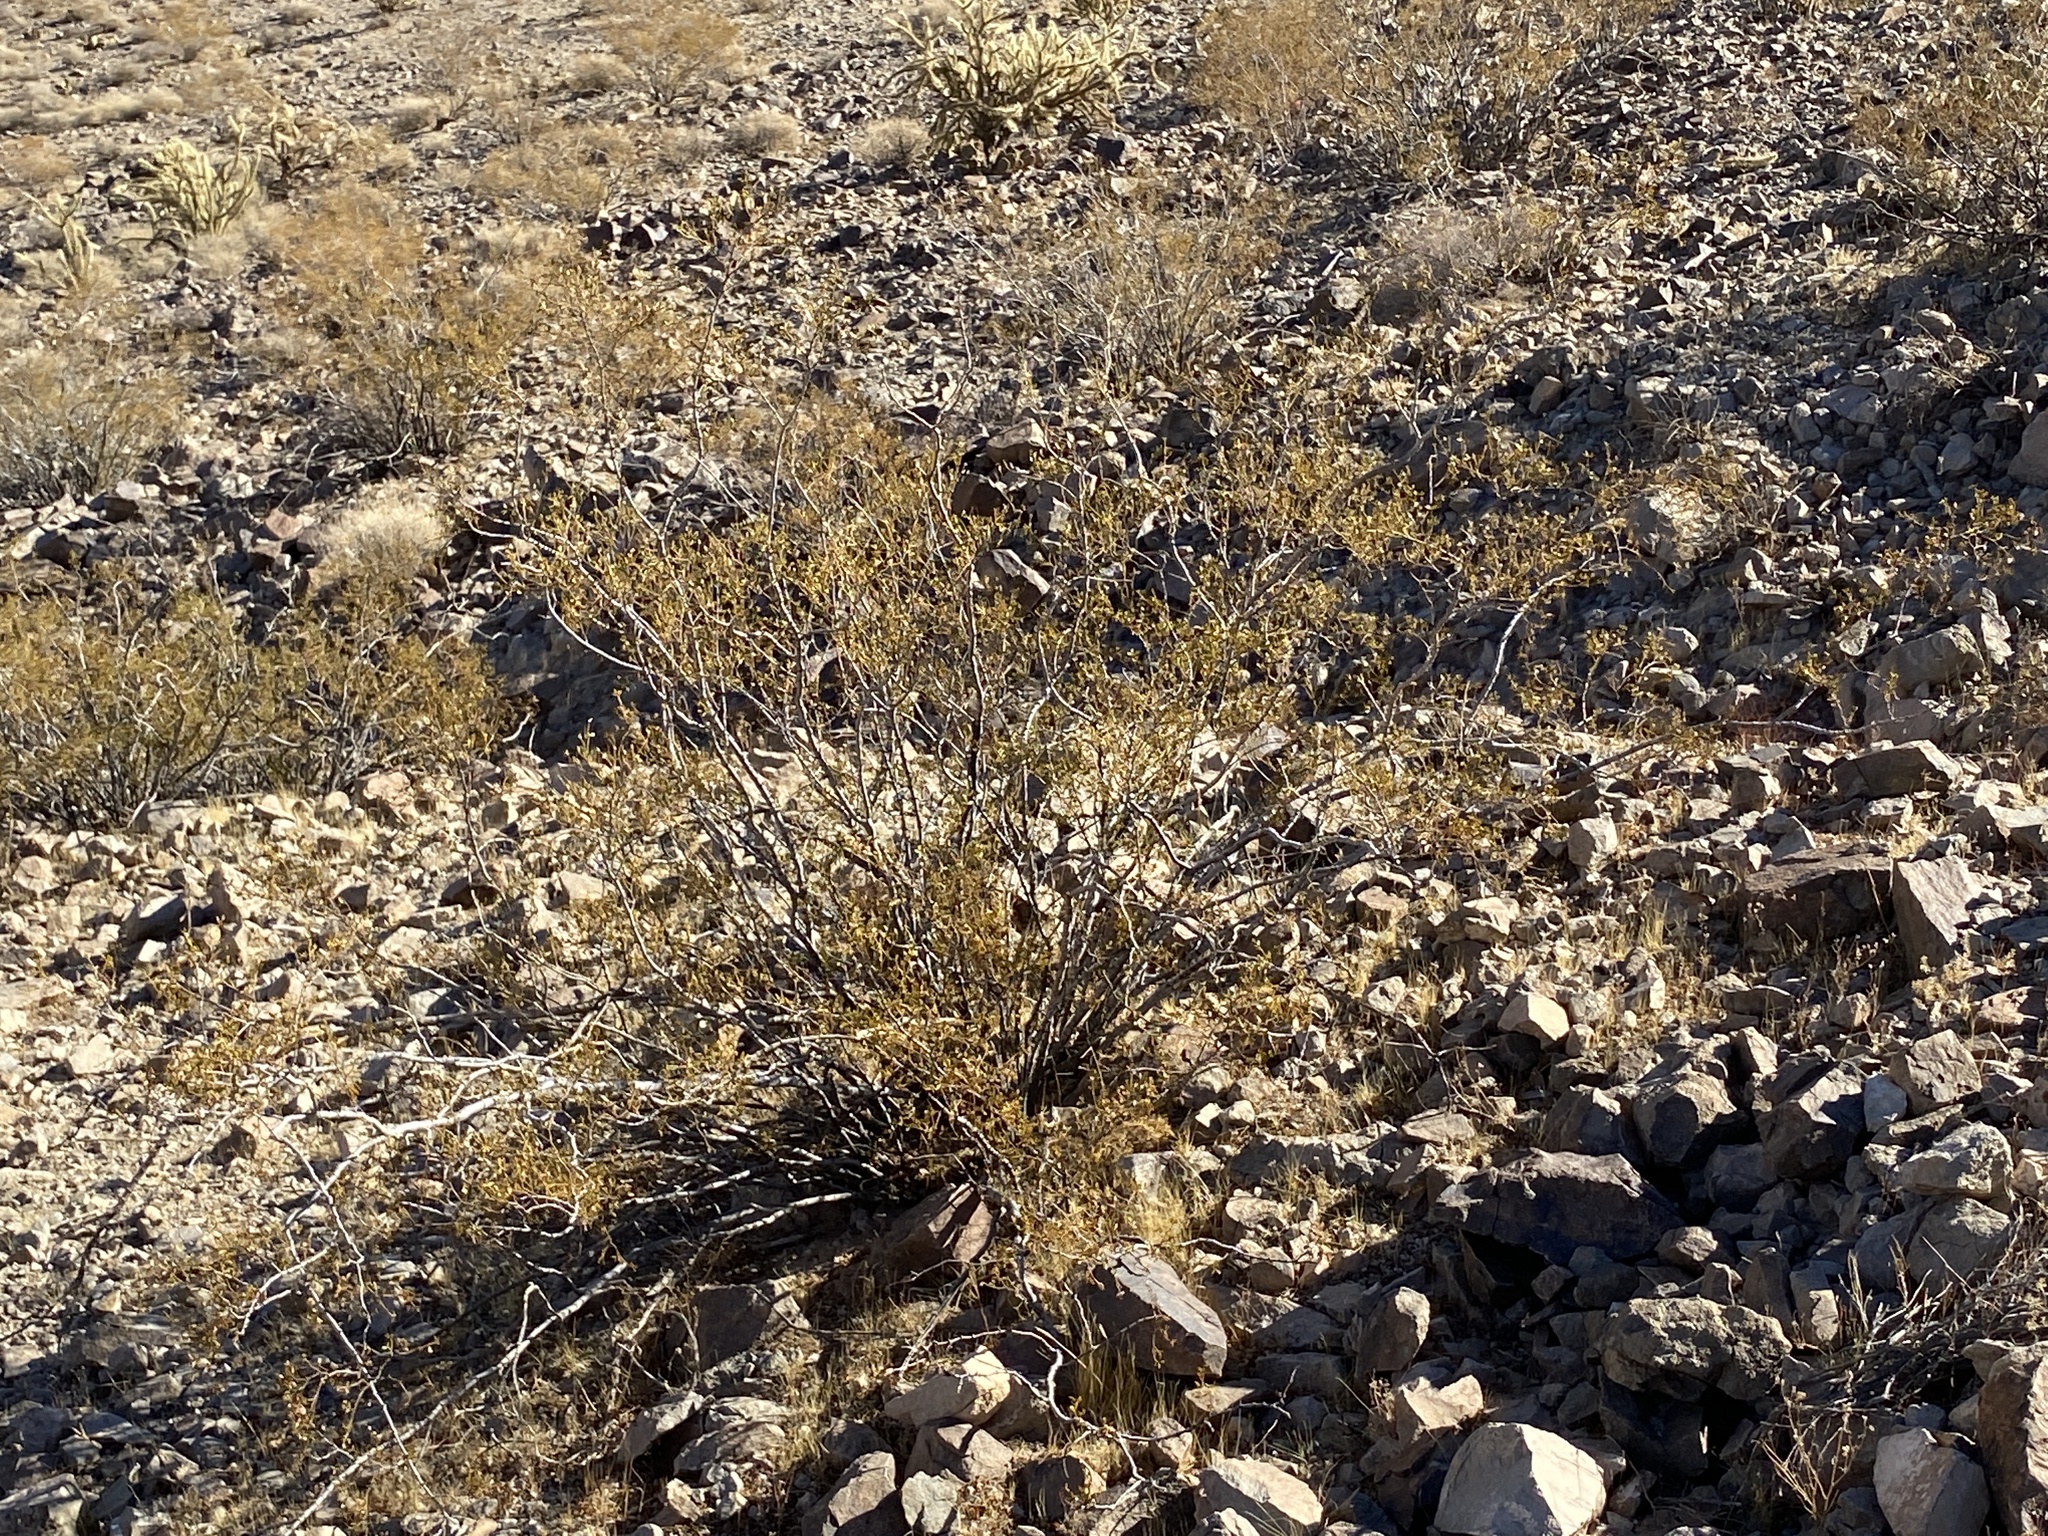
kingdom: Plantae
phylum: Tracheophyta
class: Magnoliopsida
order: Zygophyllales
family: Zygophyllaceae
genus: Larrea
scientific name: Larrea tridentata
